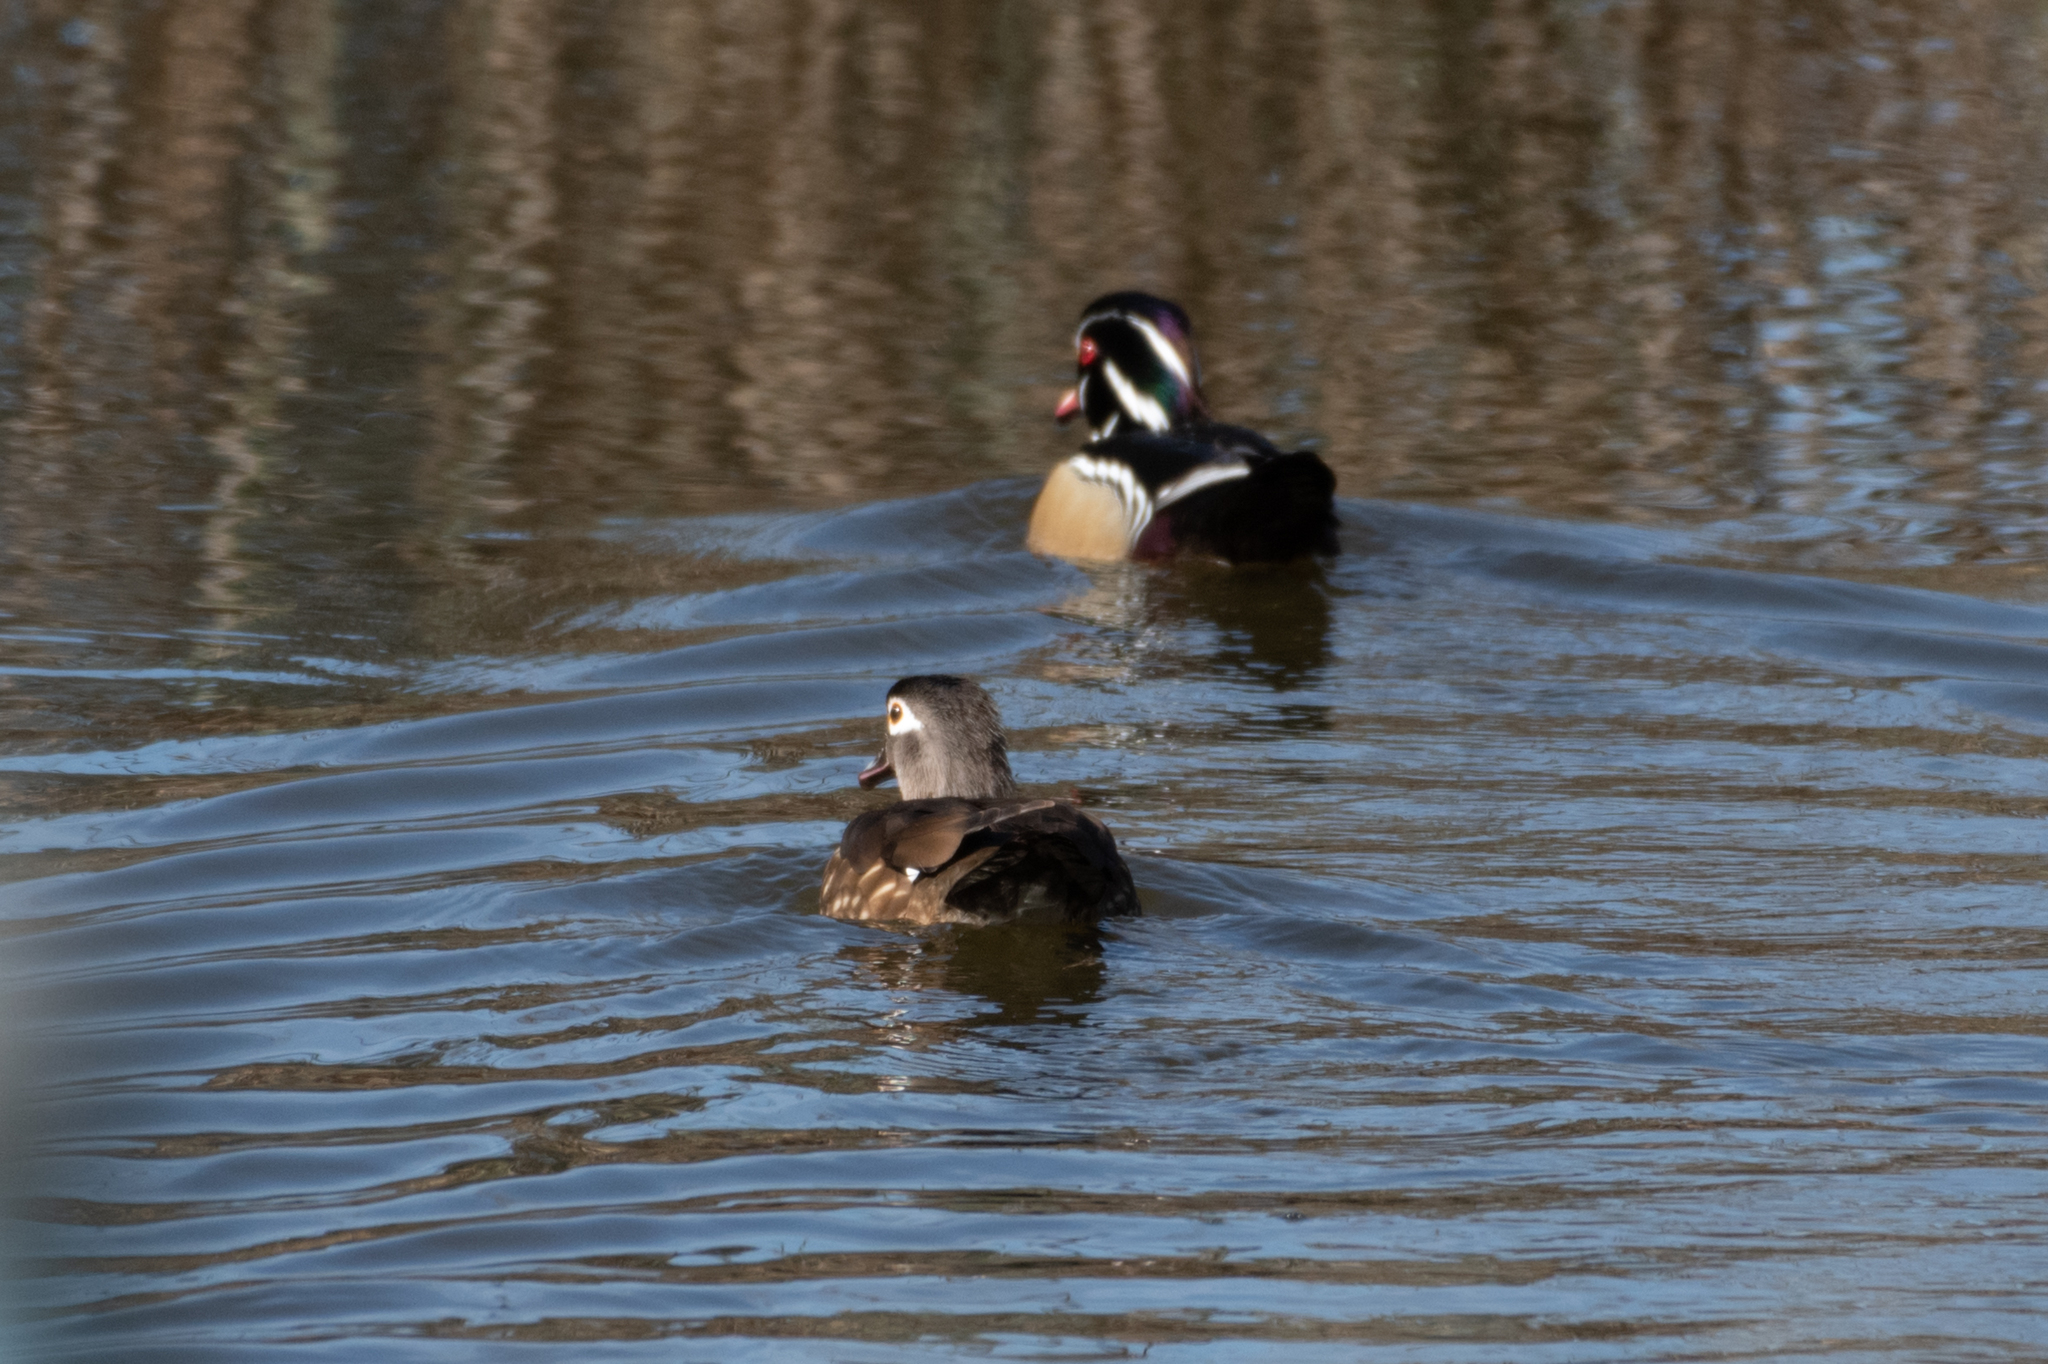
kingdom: Animalia
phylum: Chordata
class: Aves
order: Anseriformes
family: Anatidae
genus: Aix
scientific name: Aix sponsa
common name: Wood duck
